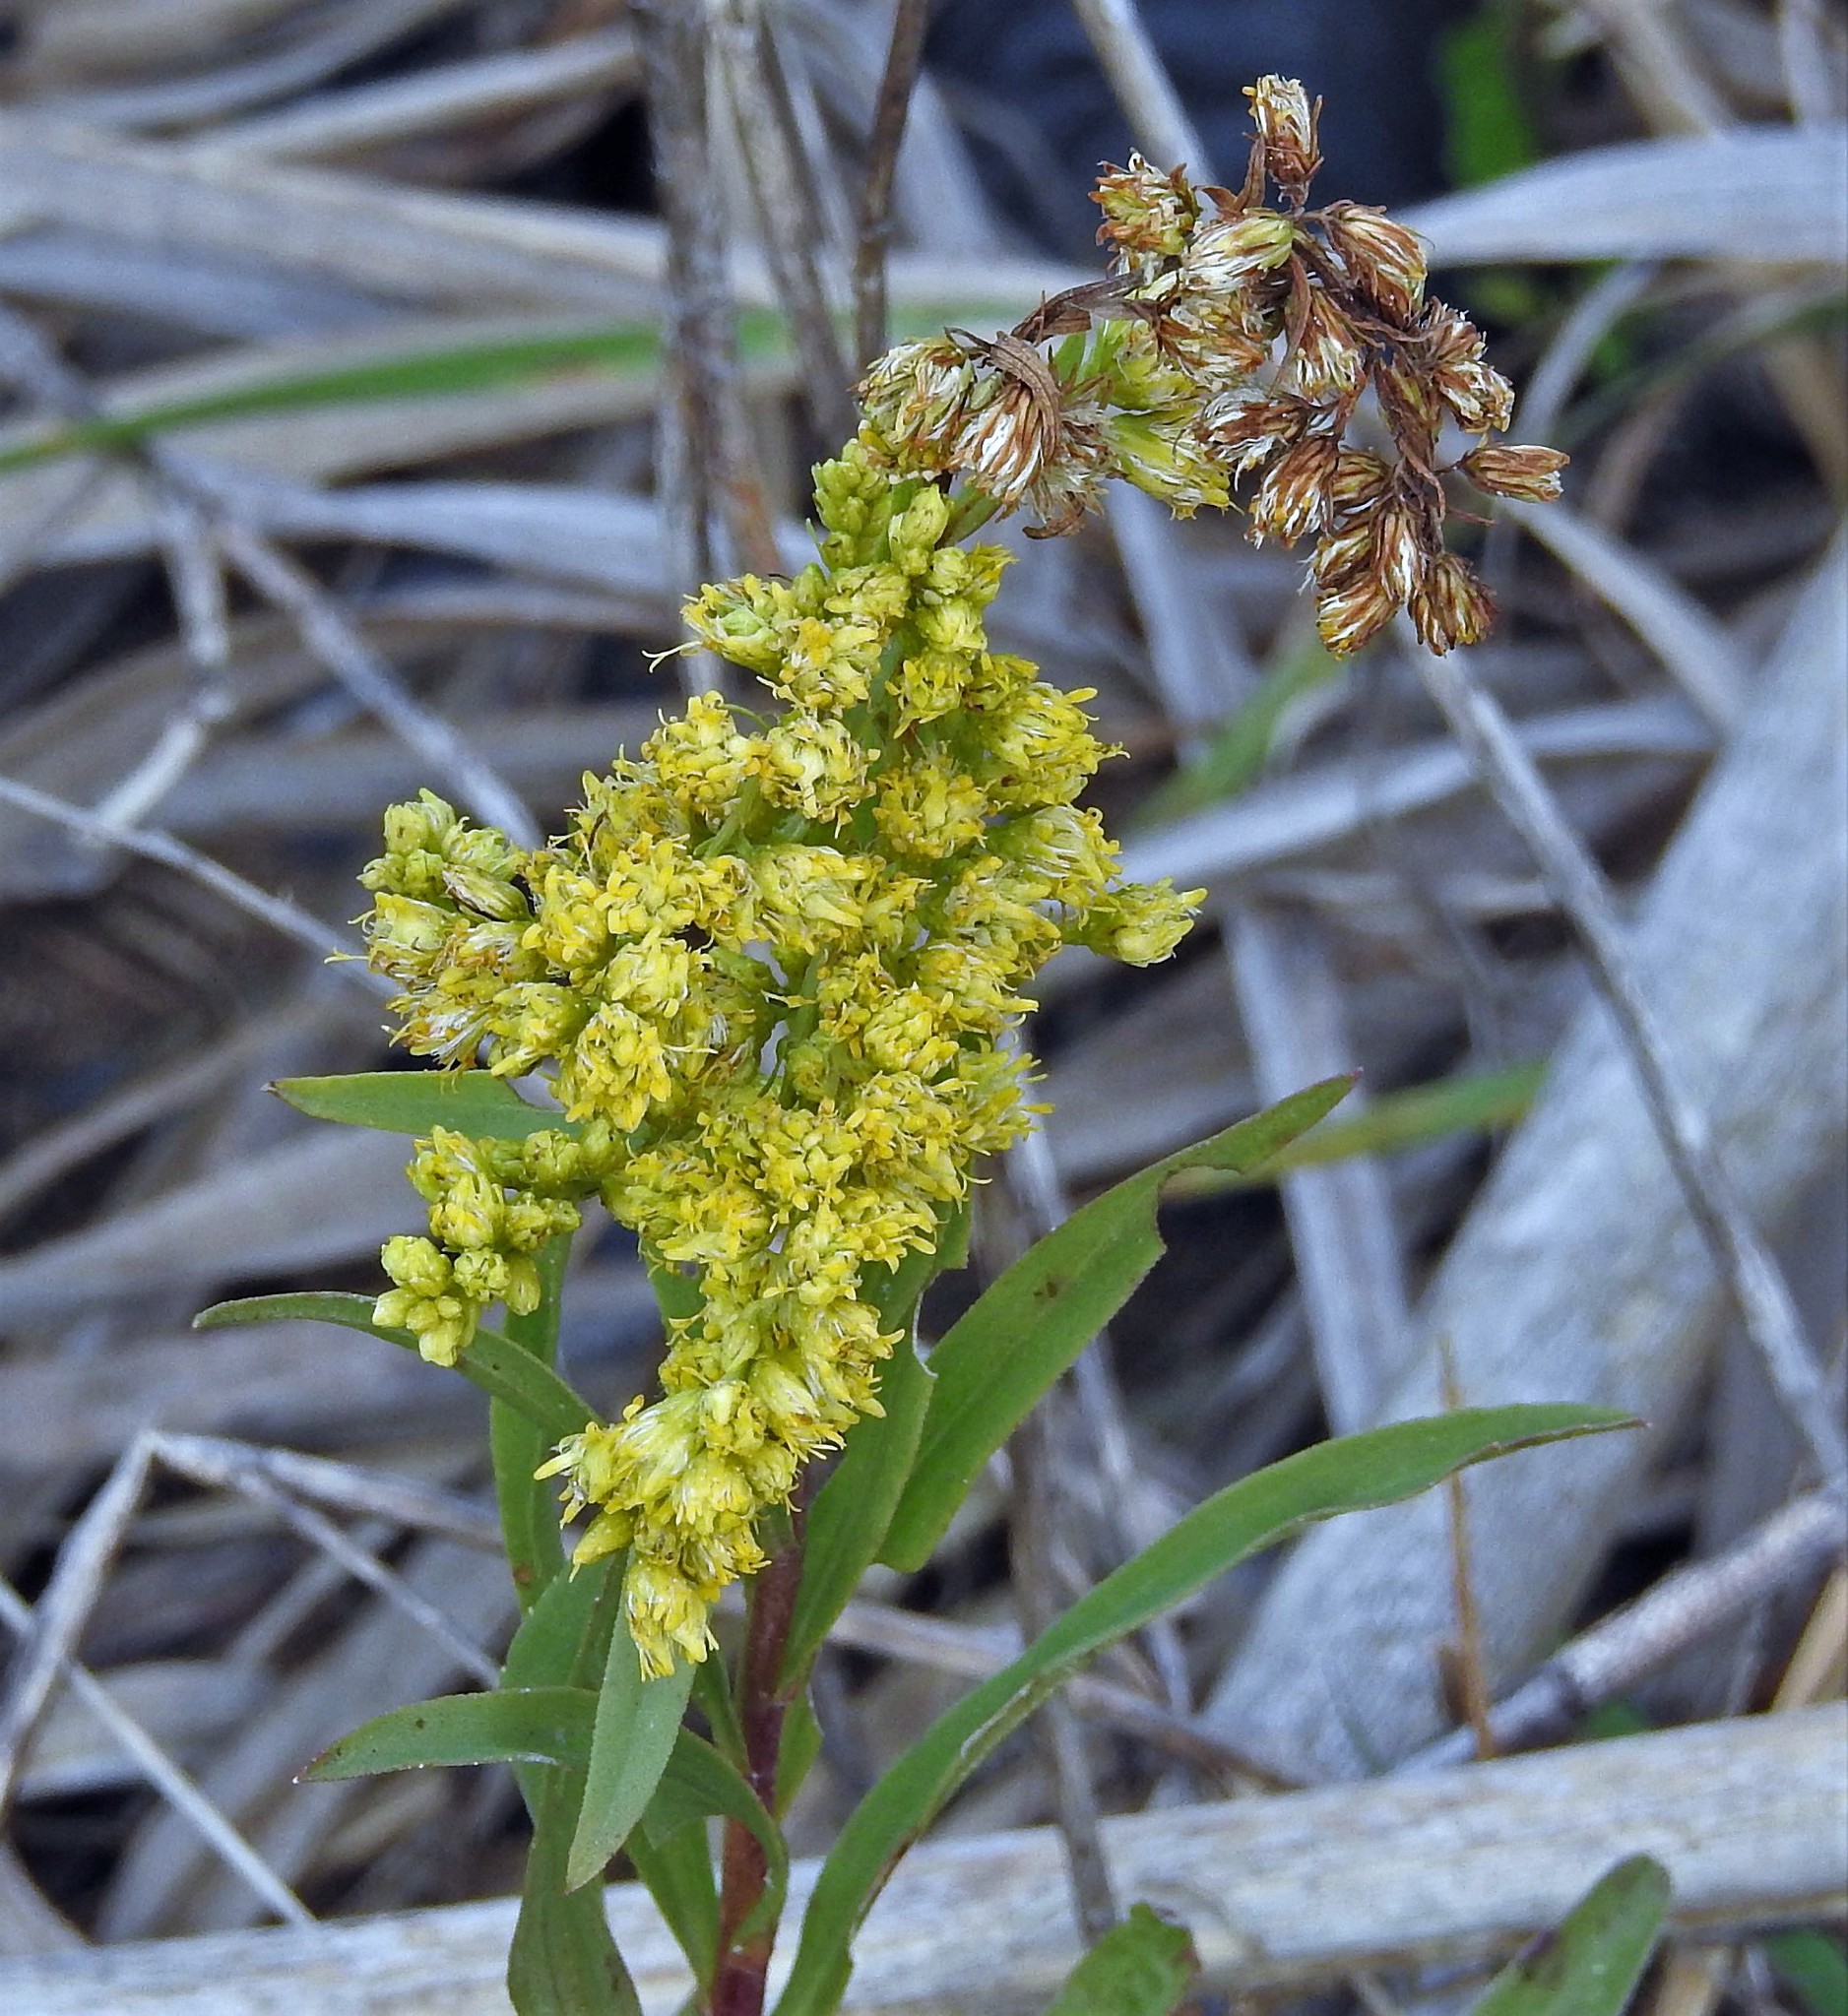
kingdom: Plantae
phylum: Tracheophyta
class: Magnoliopsida
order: Asterales
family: Asteraceae
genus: Solidago
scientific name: Solidago chilensis
